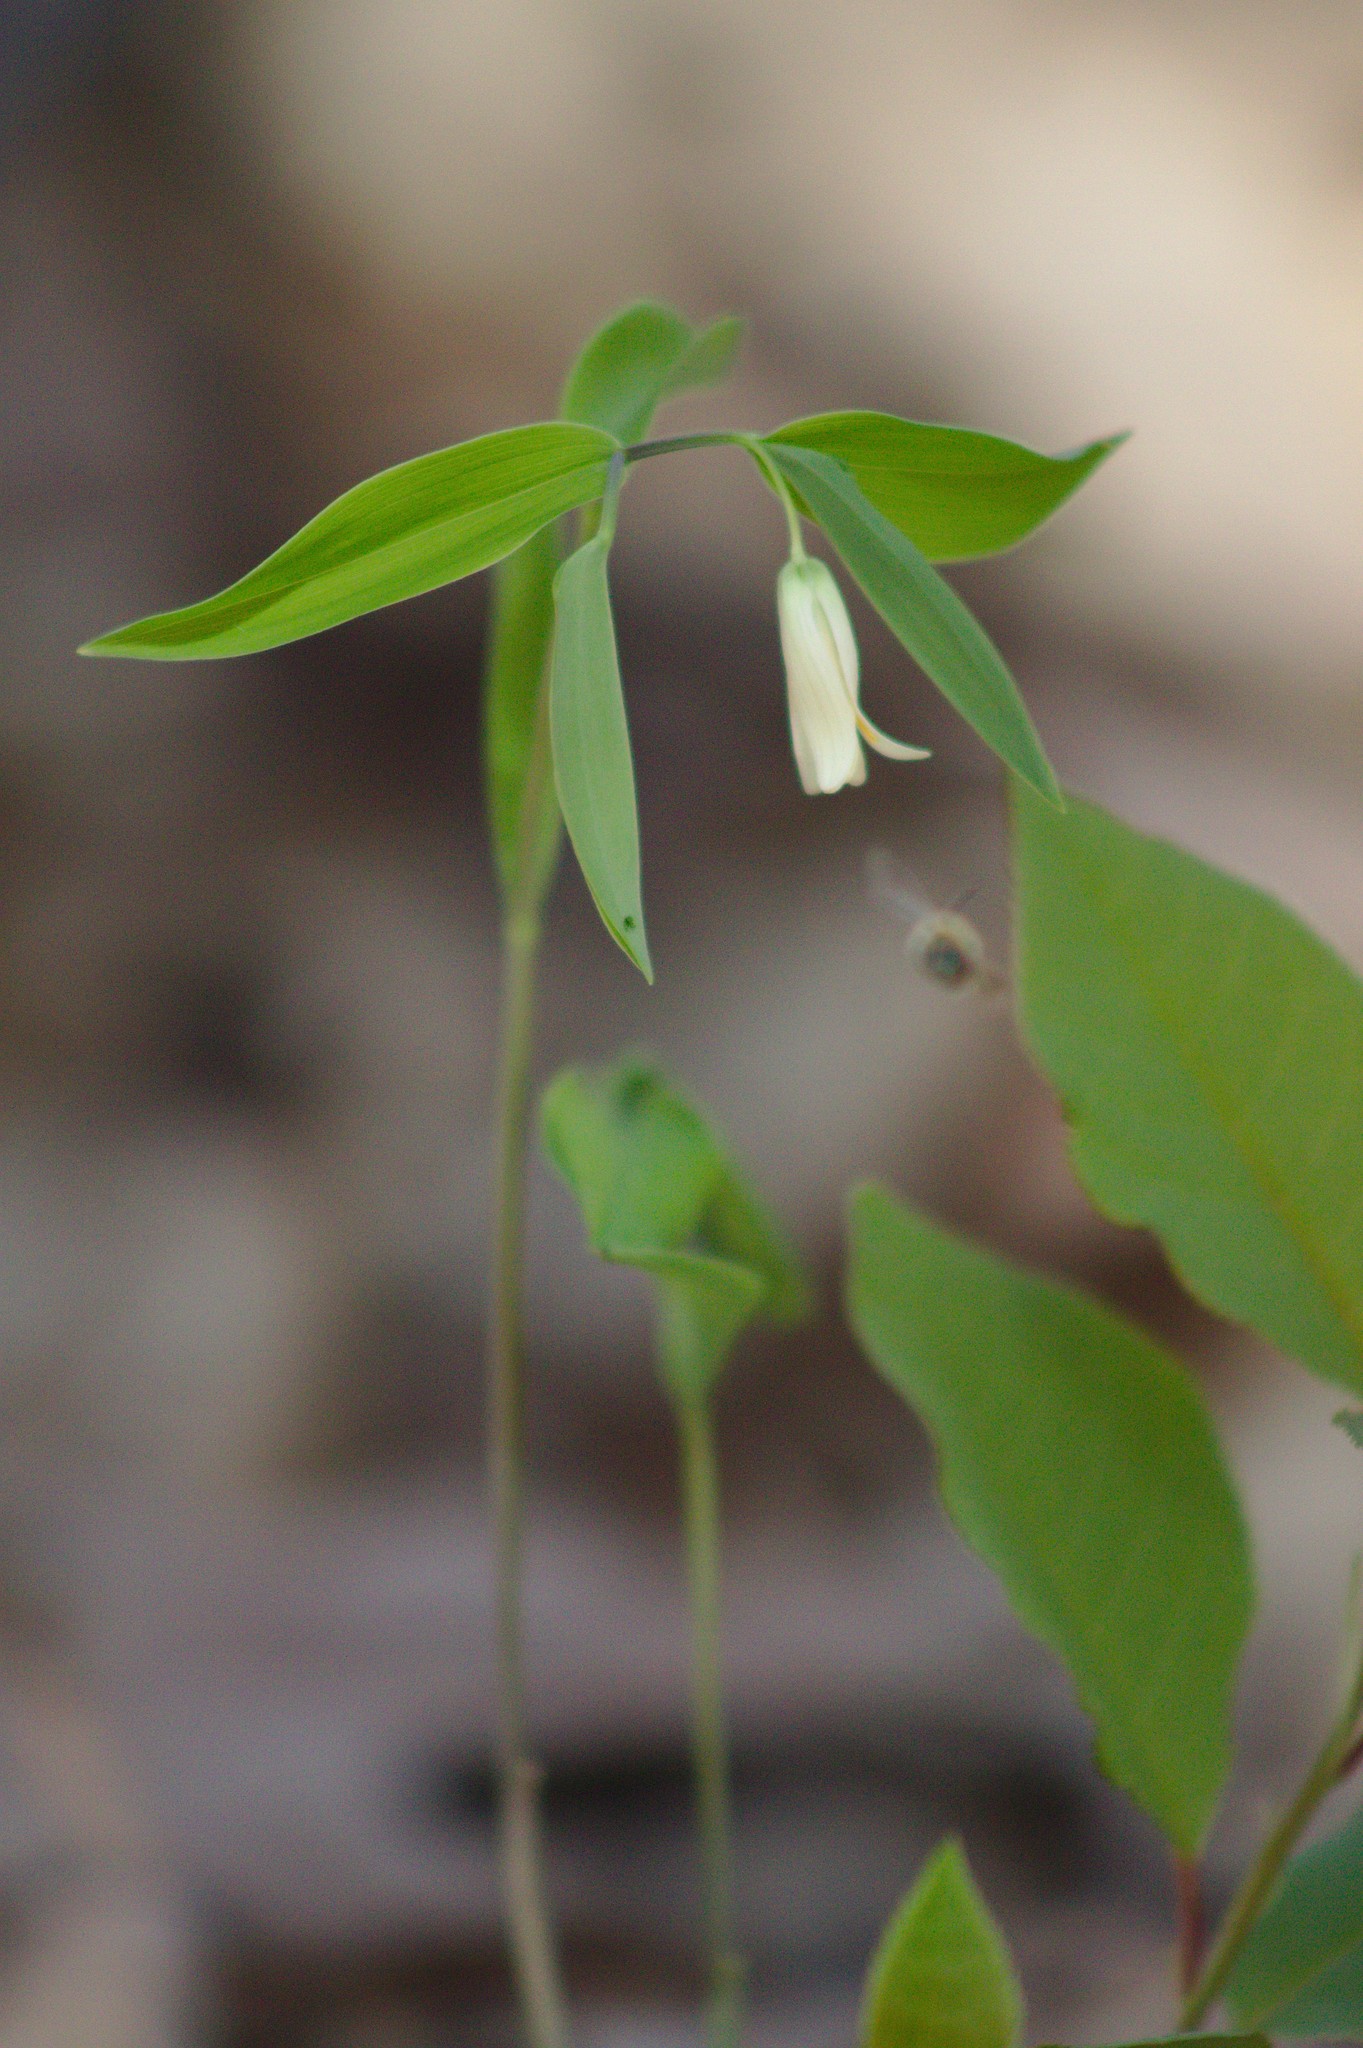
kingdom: Plantae
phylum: Tracheophyta
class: Liliopsida
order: Liliales
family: Colchicaceae
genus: Uvularia
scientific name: Uvularia sessilifolia
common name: Straw-lily
